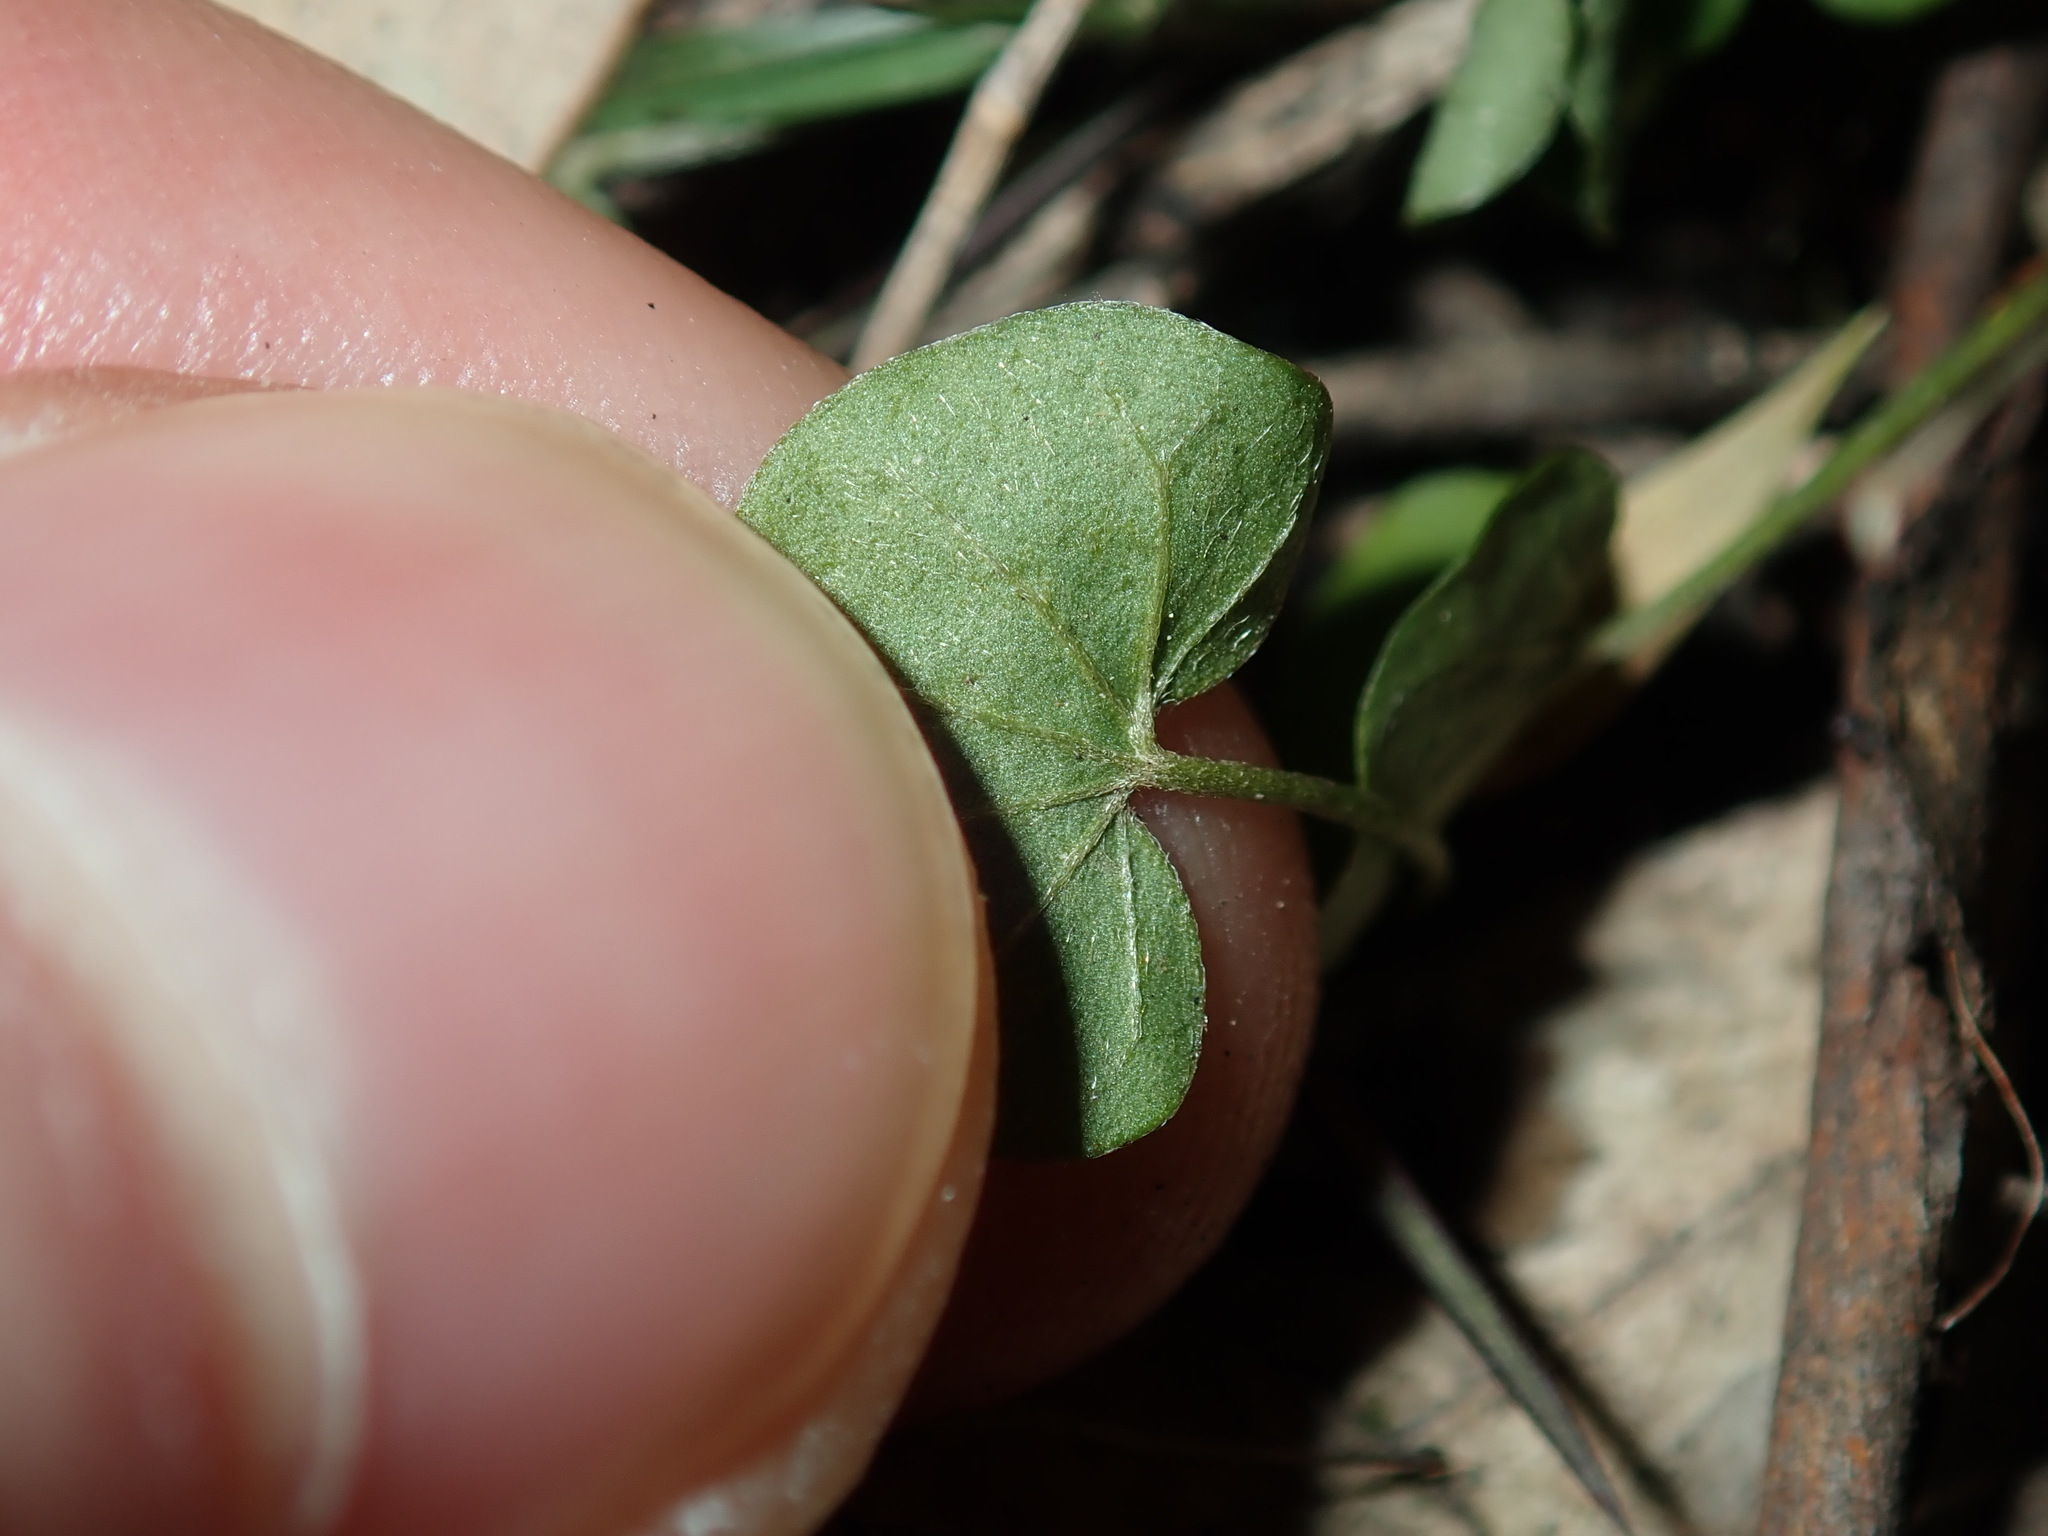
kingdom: Plantae
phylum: Tracheophyta
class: Magnoliopsida
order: Solanales
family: Convolvulaceae
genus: Dichondra
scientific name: Dichondra repens
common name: Kidneyweed
